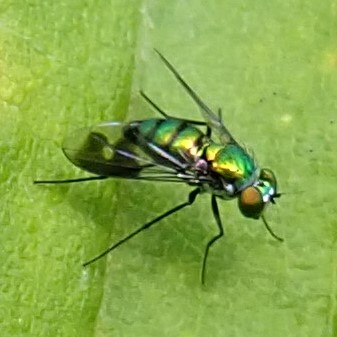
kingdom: Animalia
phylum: Arthropoda
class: Insecta
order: Diptera
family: Dolichopodidae
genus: Condylostylus
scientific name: Condylostylus patibulatus
